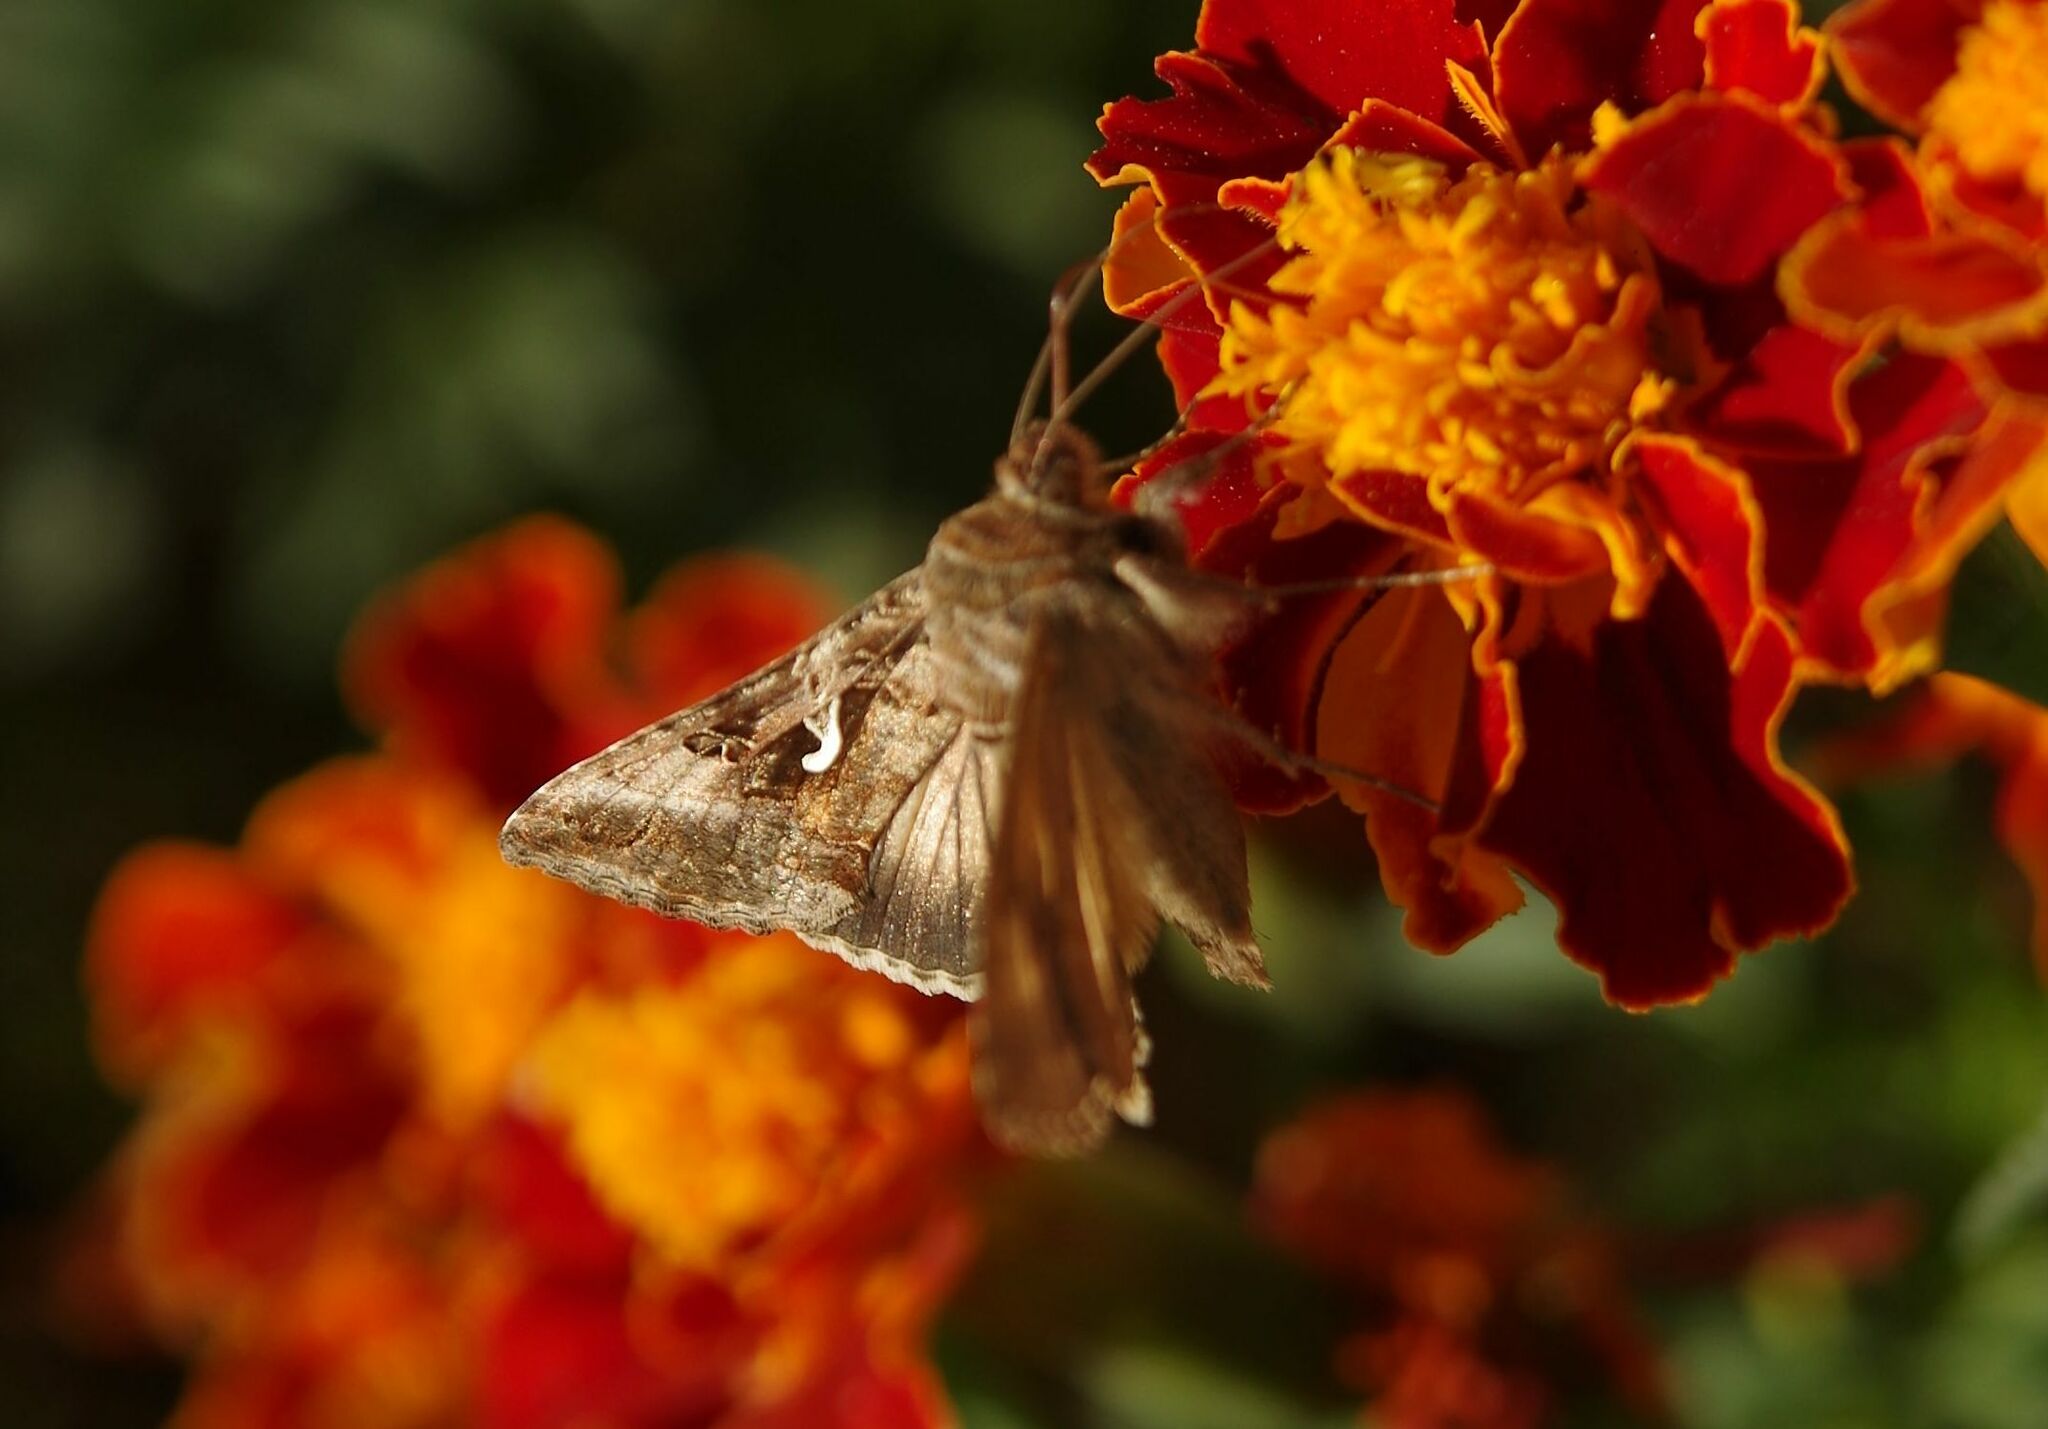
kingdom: Animalia
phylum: Arthropoda
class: Insecta
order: Lepidoptera
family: Noctuidae
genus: Autographa
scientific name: Autographa gamma
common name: Silver y
